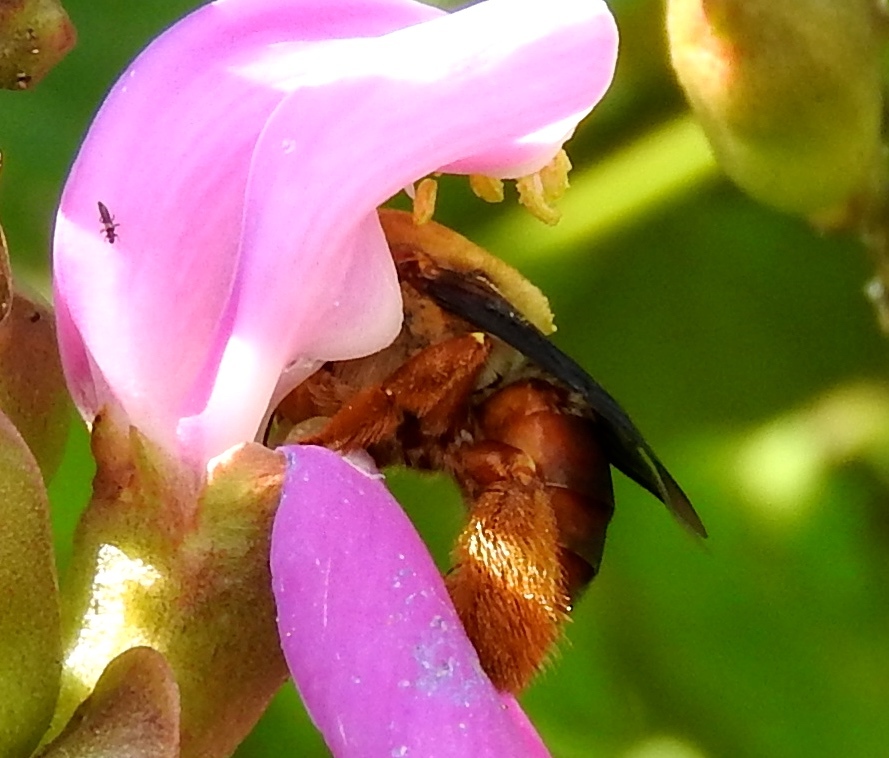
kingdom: Animalia
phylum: Arthropoda
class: Insecta
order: Hymenoptera
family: Apidae
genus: Centris
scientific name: Centris eurypatana
